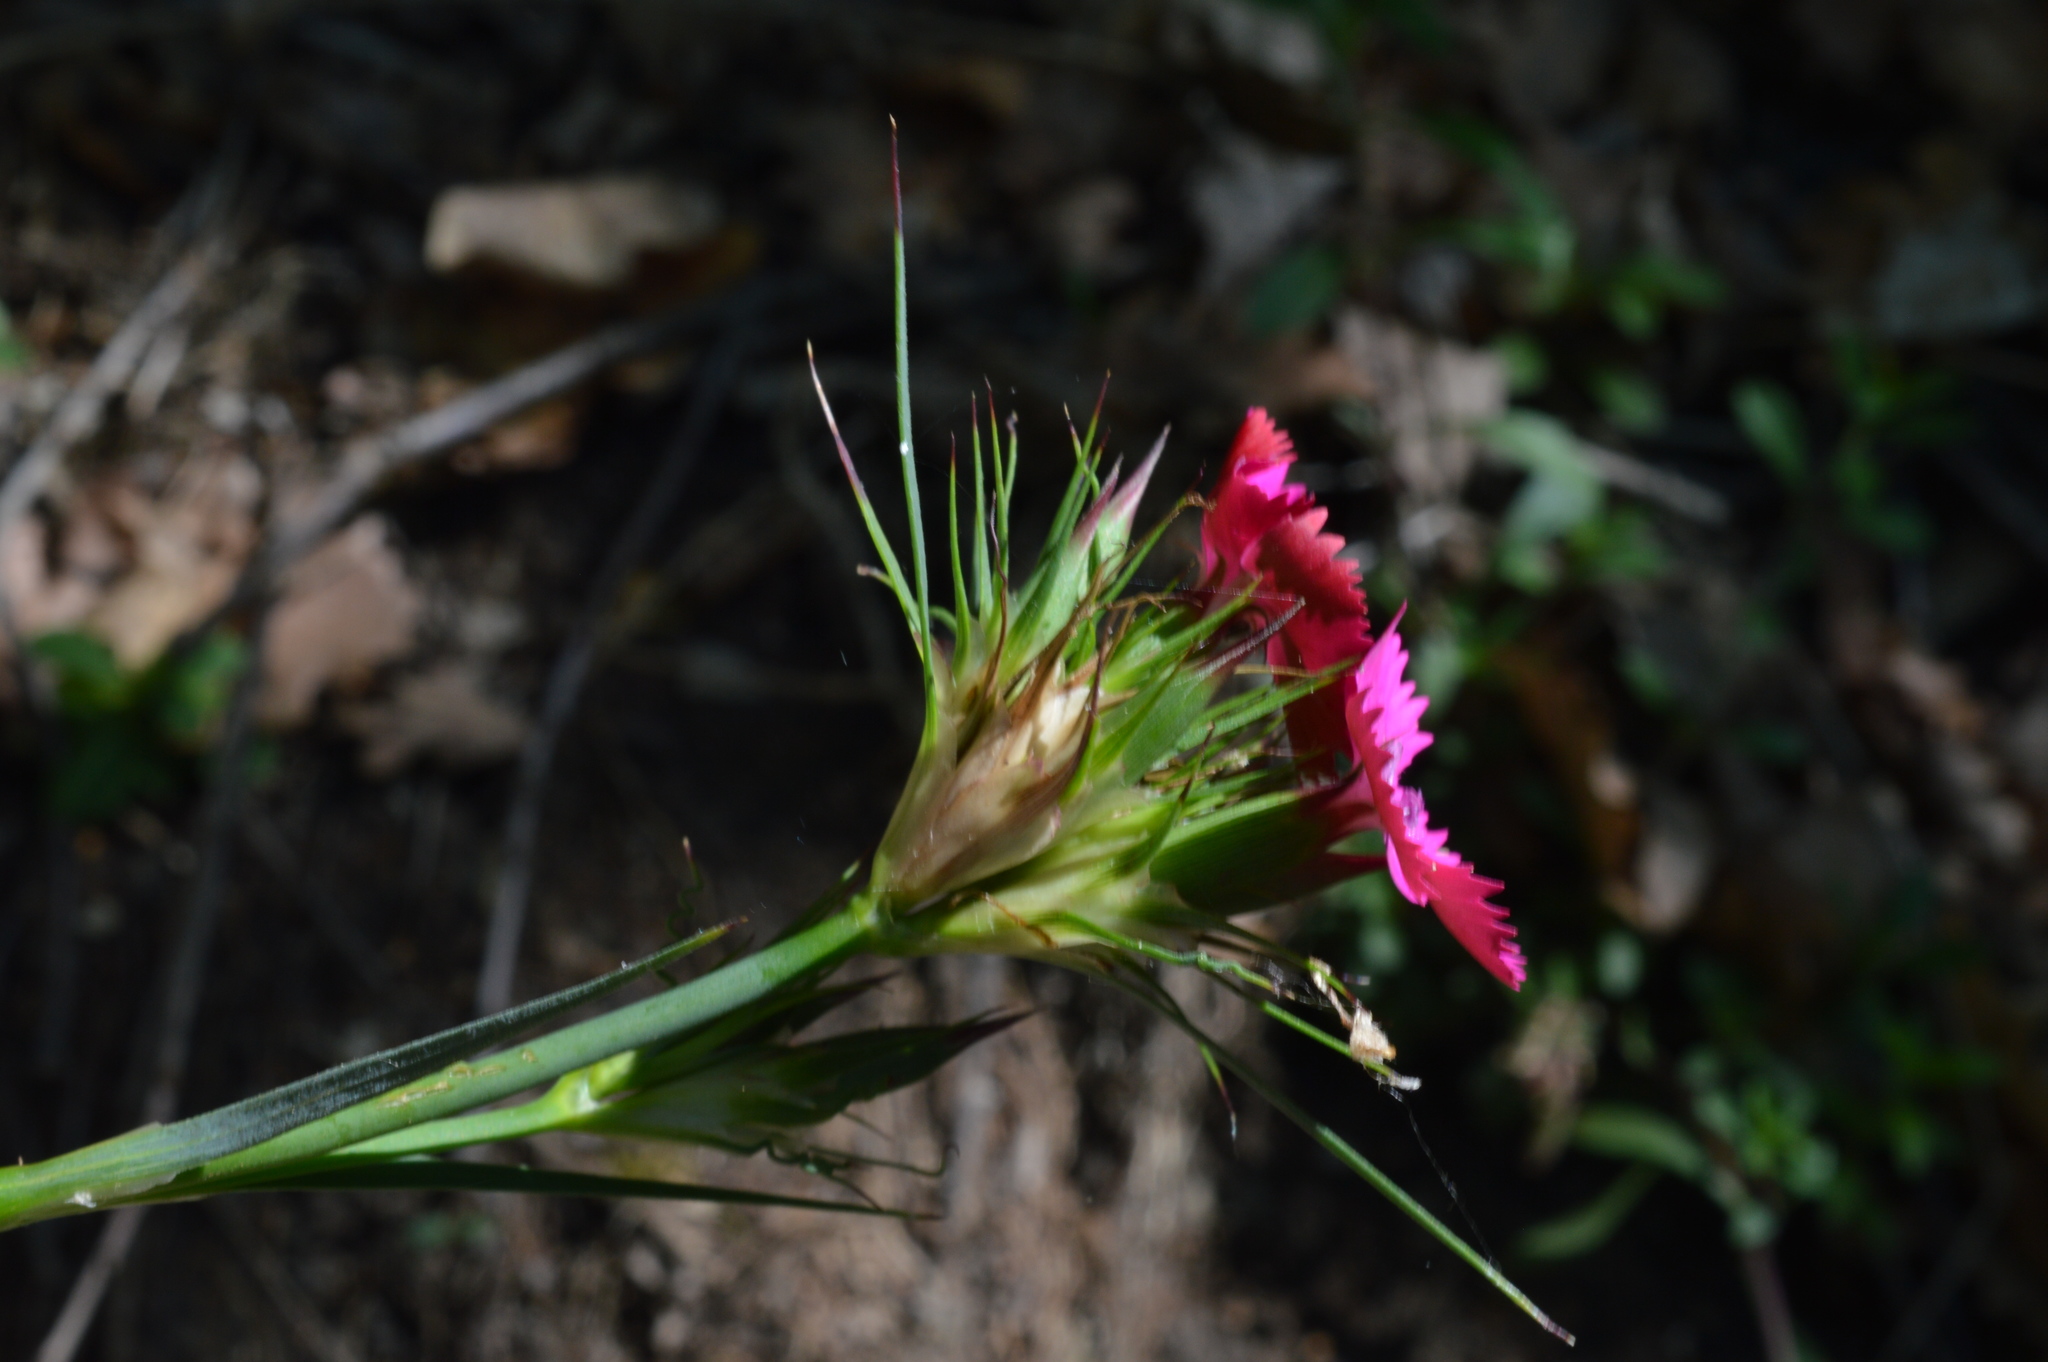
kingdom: Plantae
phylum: Tracheophyta
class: Magnoliopsida
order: Caryophyllales
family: Caryophyllaceae
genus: Dianthus
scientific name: Dianthus balbisii
